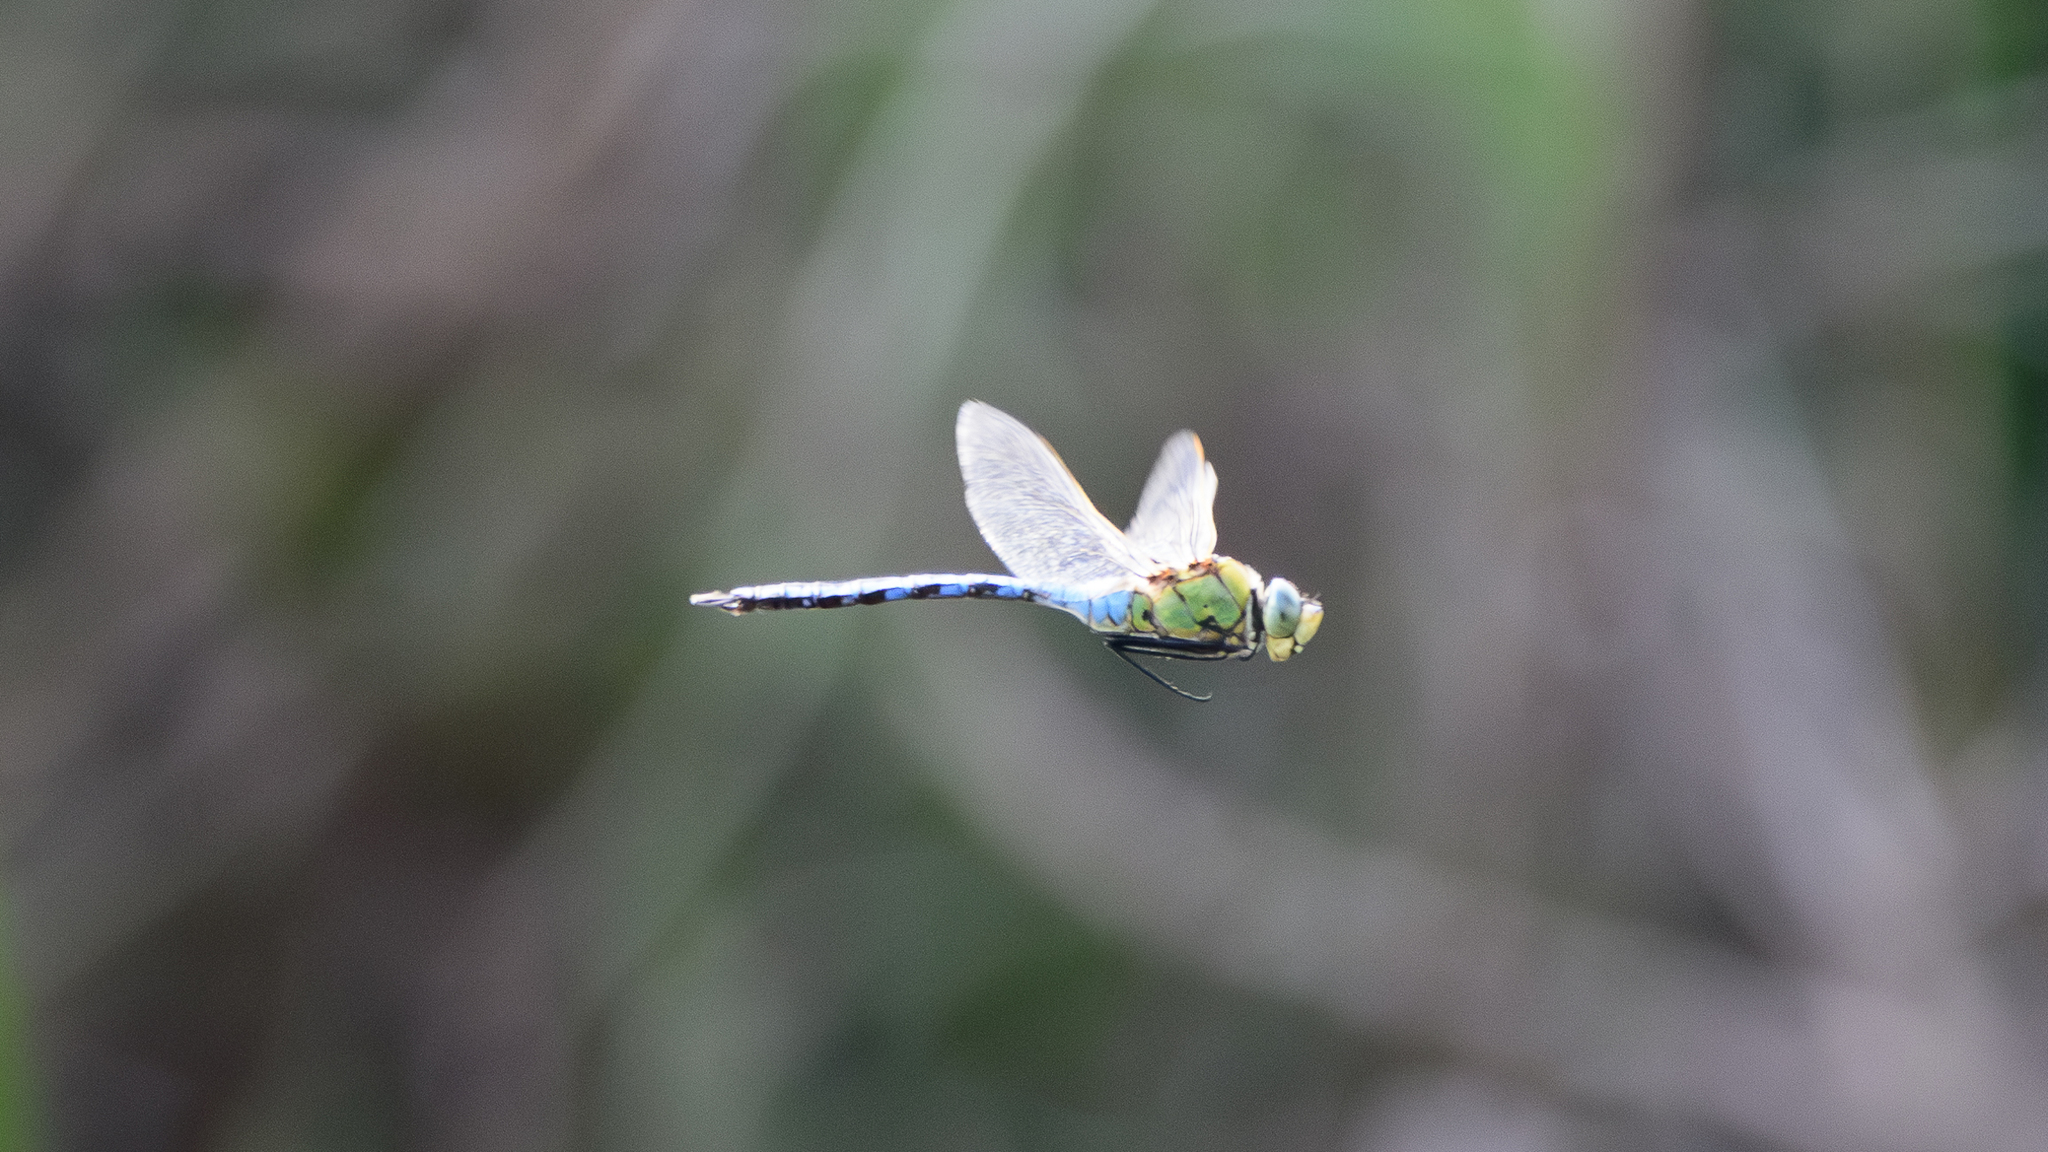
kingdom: Animalia
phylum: Arthropoda
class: Insecta
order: Odonata
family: Aeshnidae
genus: Anax
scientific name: Anax imperator
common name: Emperor dragonfly
